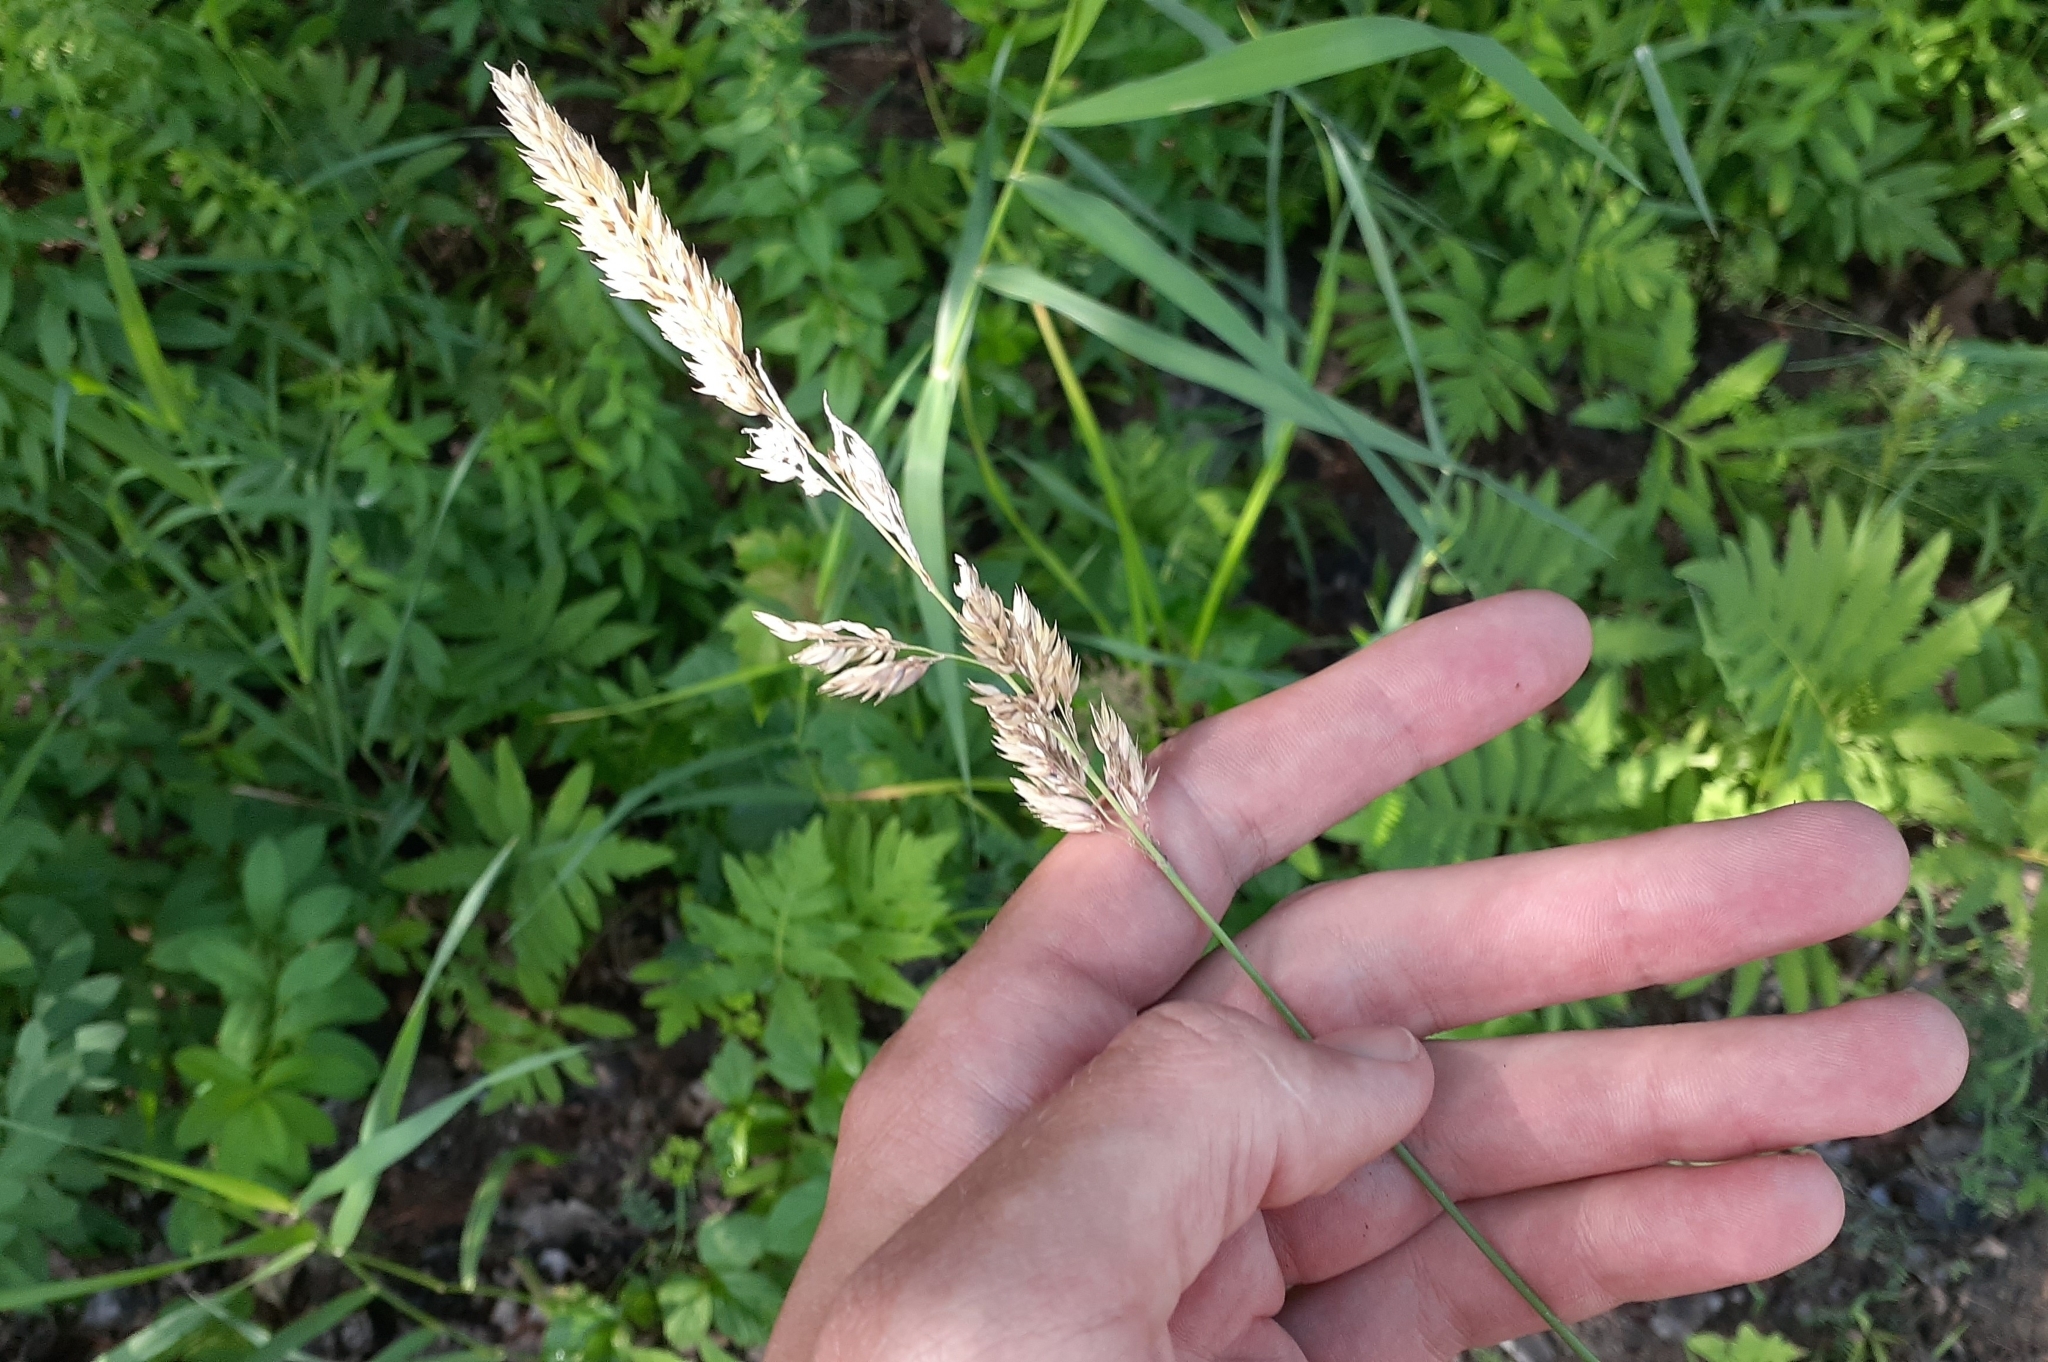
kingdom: Plantae
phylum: Tracheophyta
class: Liliopsida
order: Poales
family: Poaceae
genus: Phalaris
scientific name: Phalaris arundinacea
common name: Reed canary-grass
